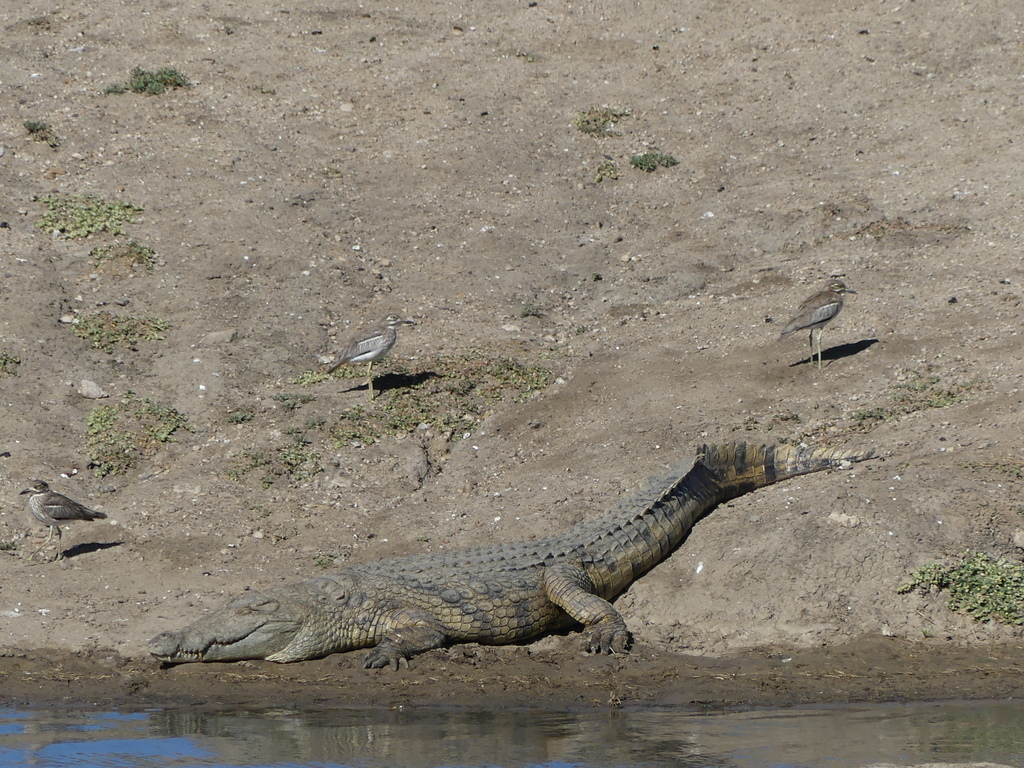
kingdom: Animalia
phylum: Chordata
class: Crocodylia
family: Crocodylidae
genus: Crocodylus
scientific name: Crocodylus niloticus
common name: Nile crocodile
